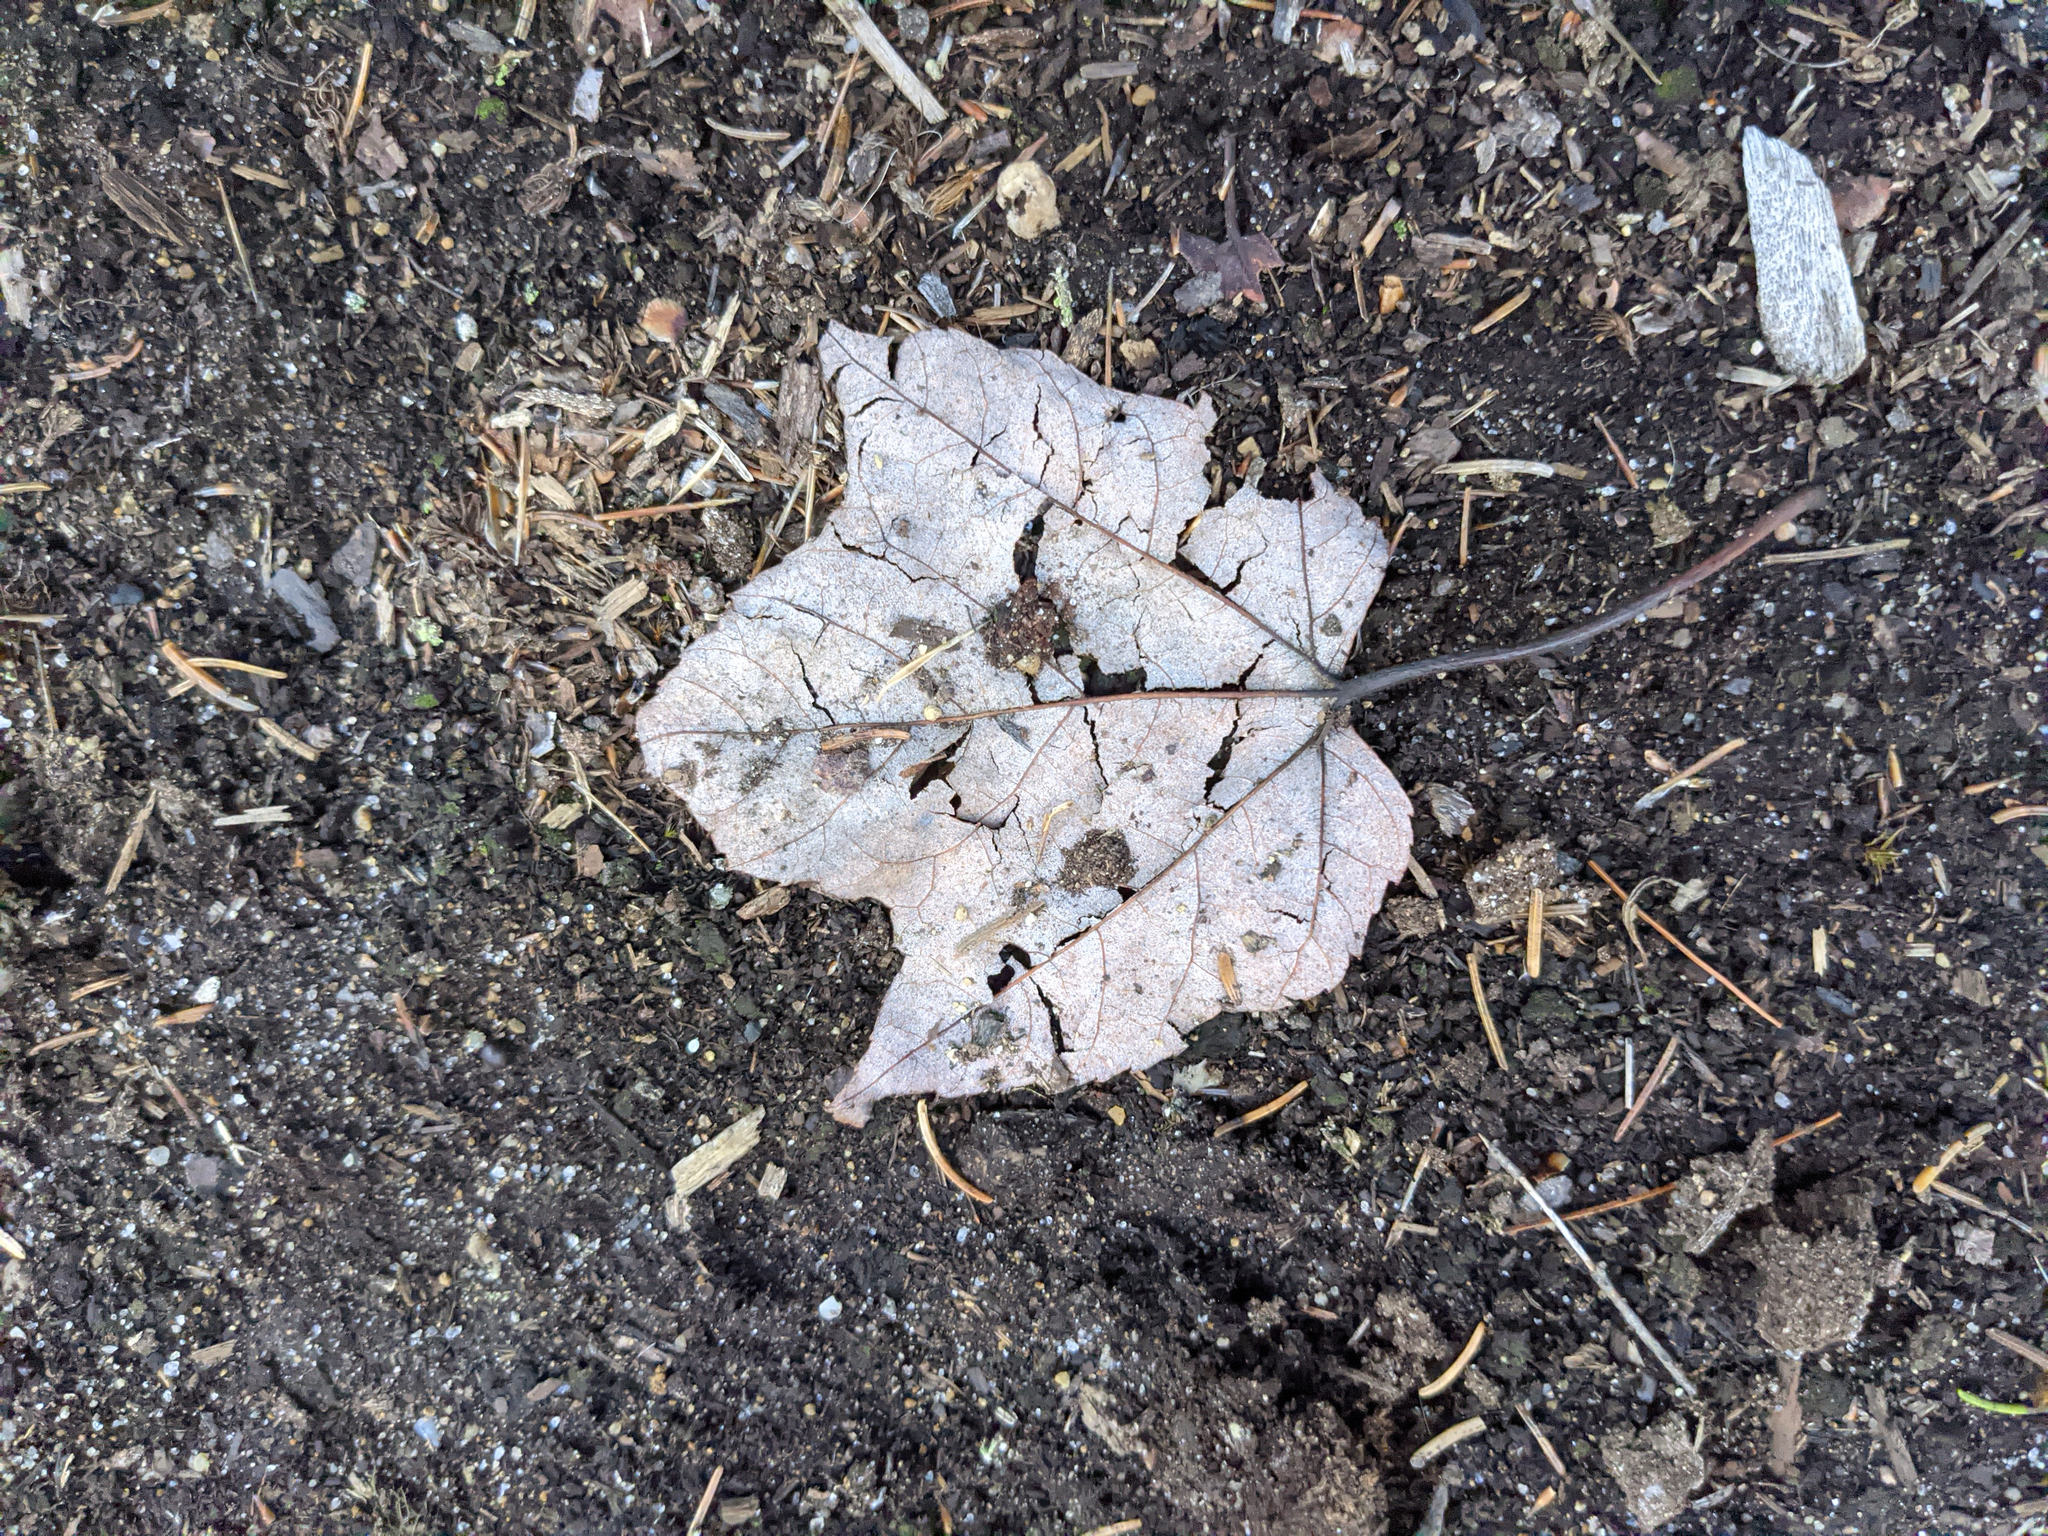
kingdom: Plantae
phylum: Tracheophyta
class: Magnoliopsida
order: Sapindales
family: Sapindaceae
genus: Acer
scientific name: Acer rubrum
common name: Red maple
